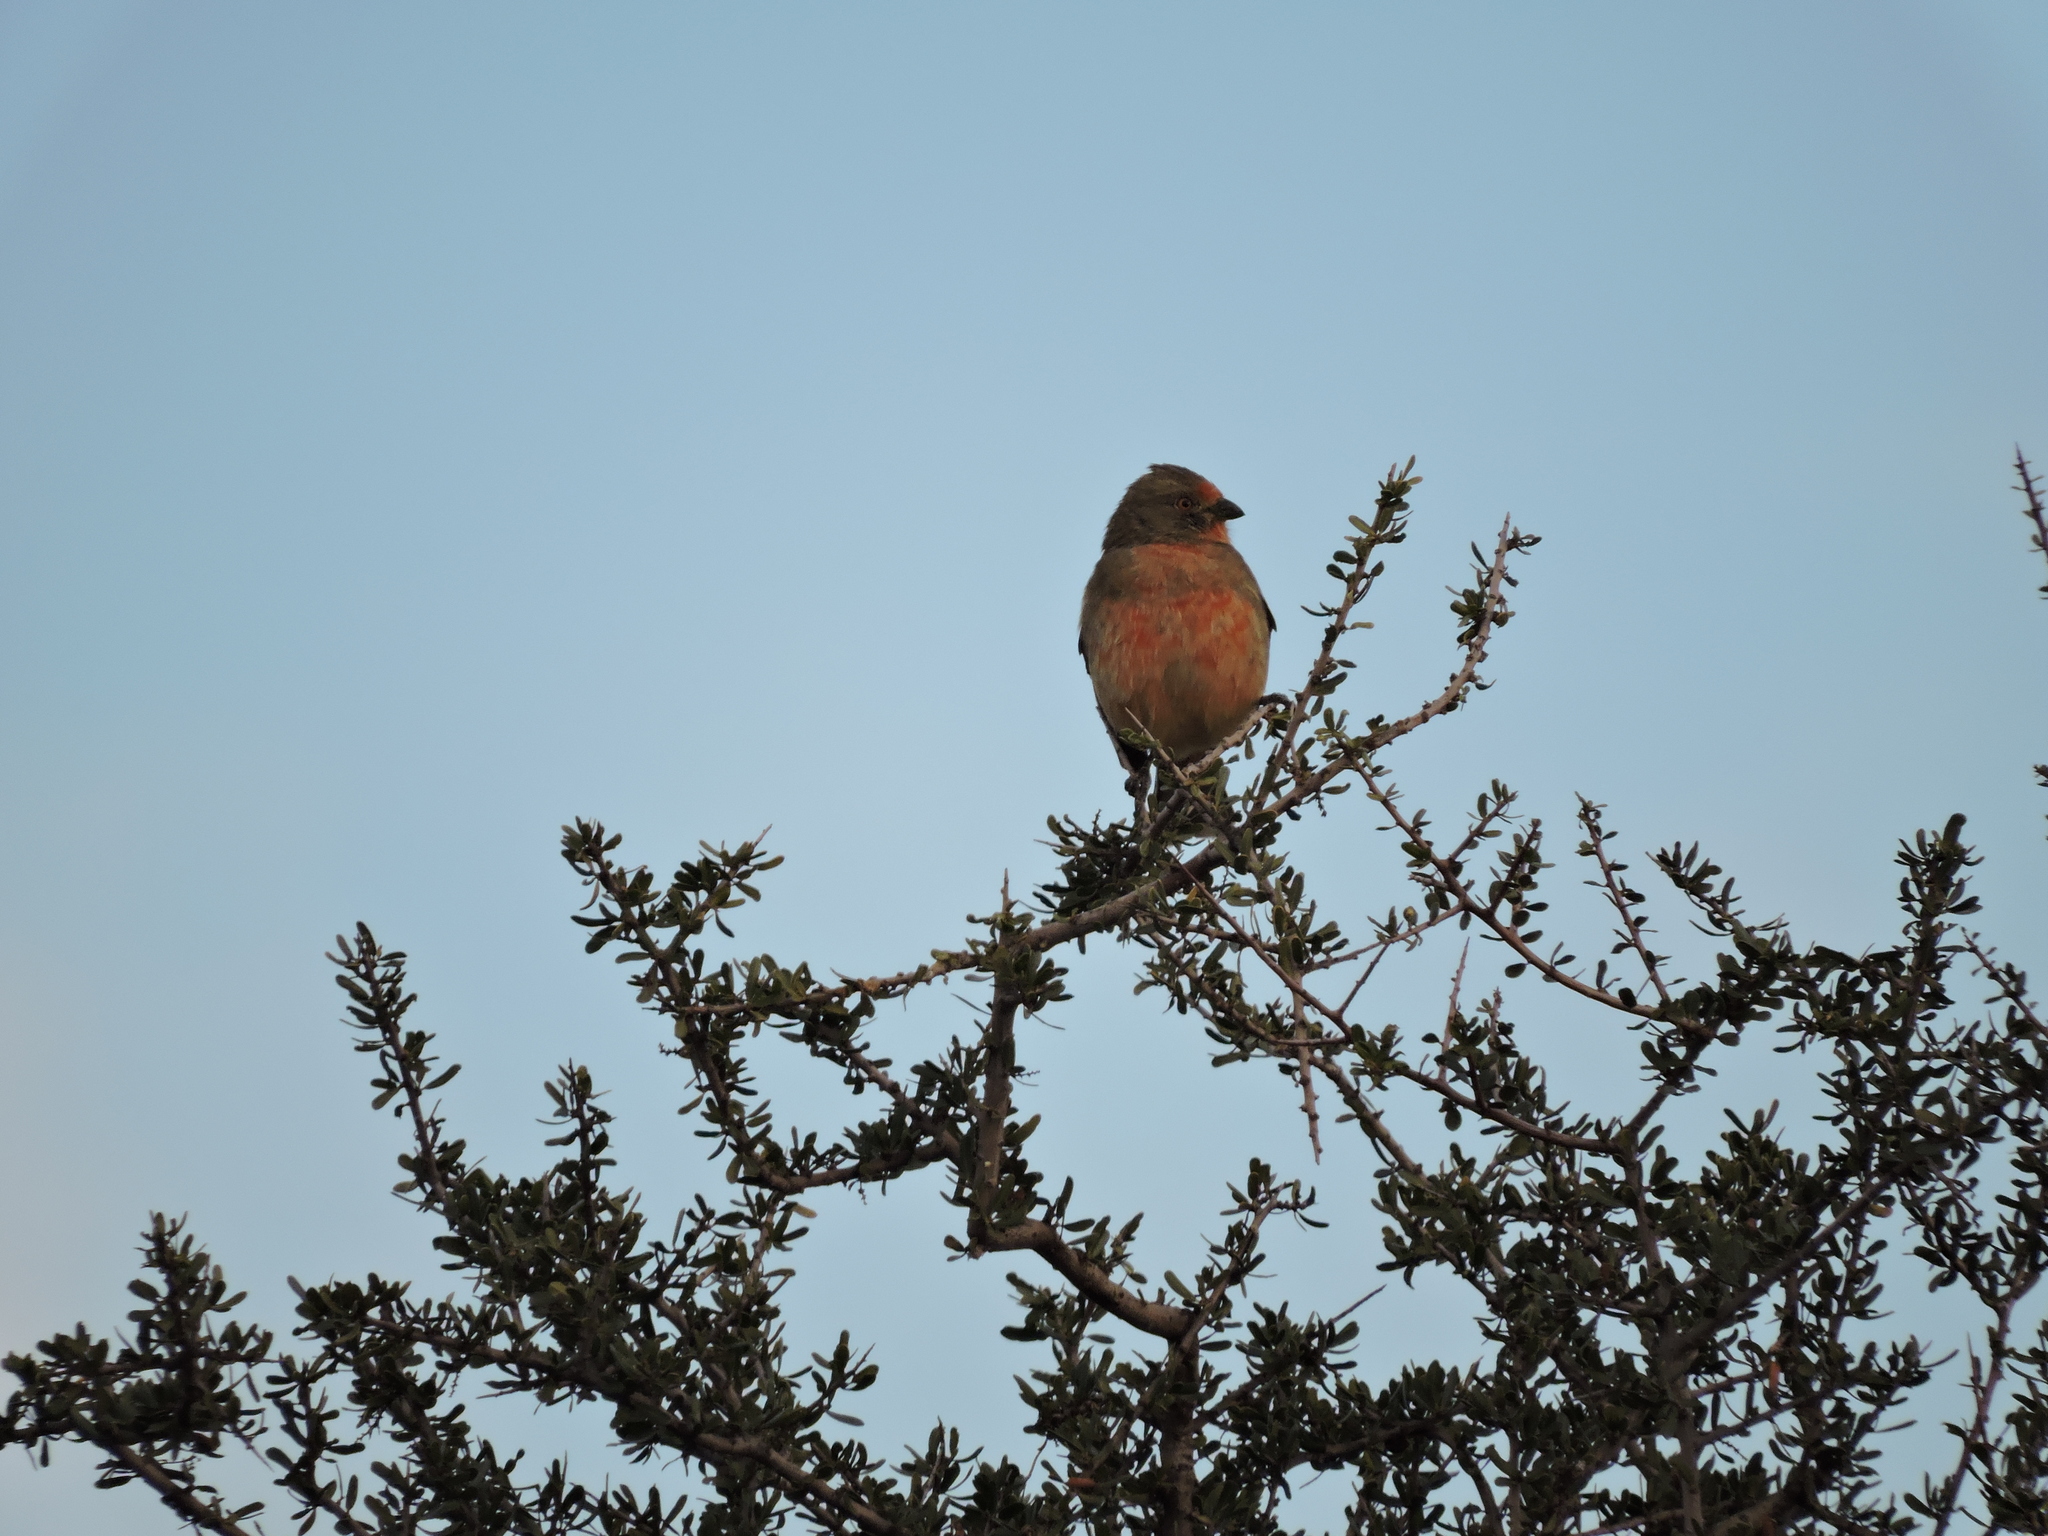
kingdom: Animalia
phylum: Chordata
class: Aves
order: Passeriformes
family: Cotingidae
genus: Phytotoma
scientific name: Phytotoma rutila
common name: White-tipped plantcutter
